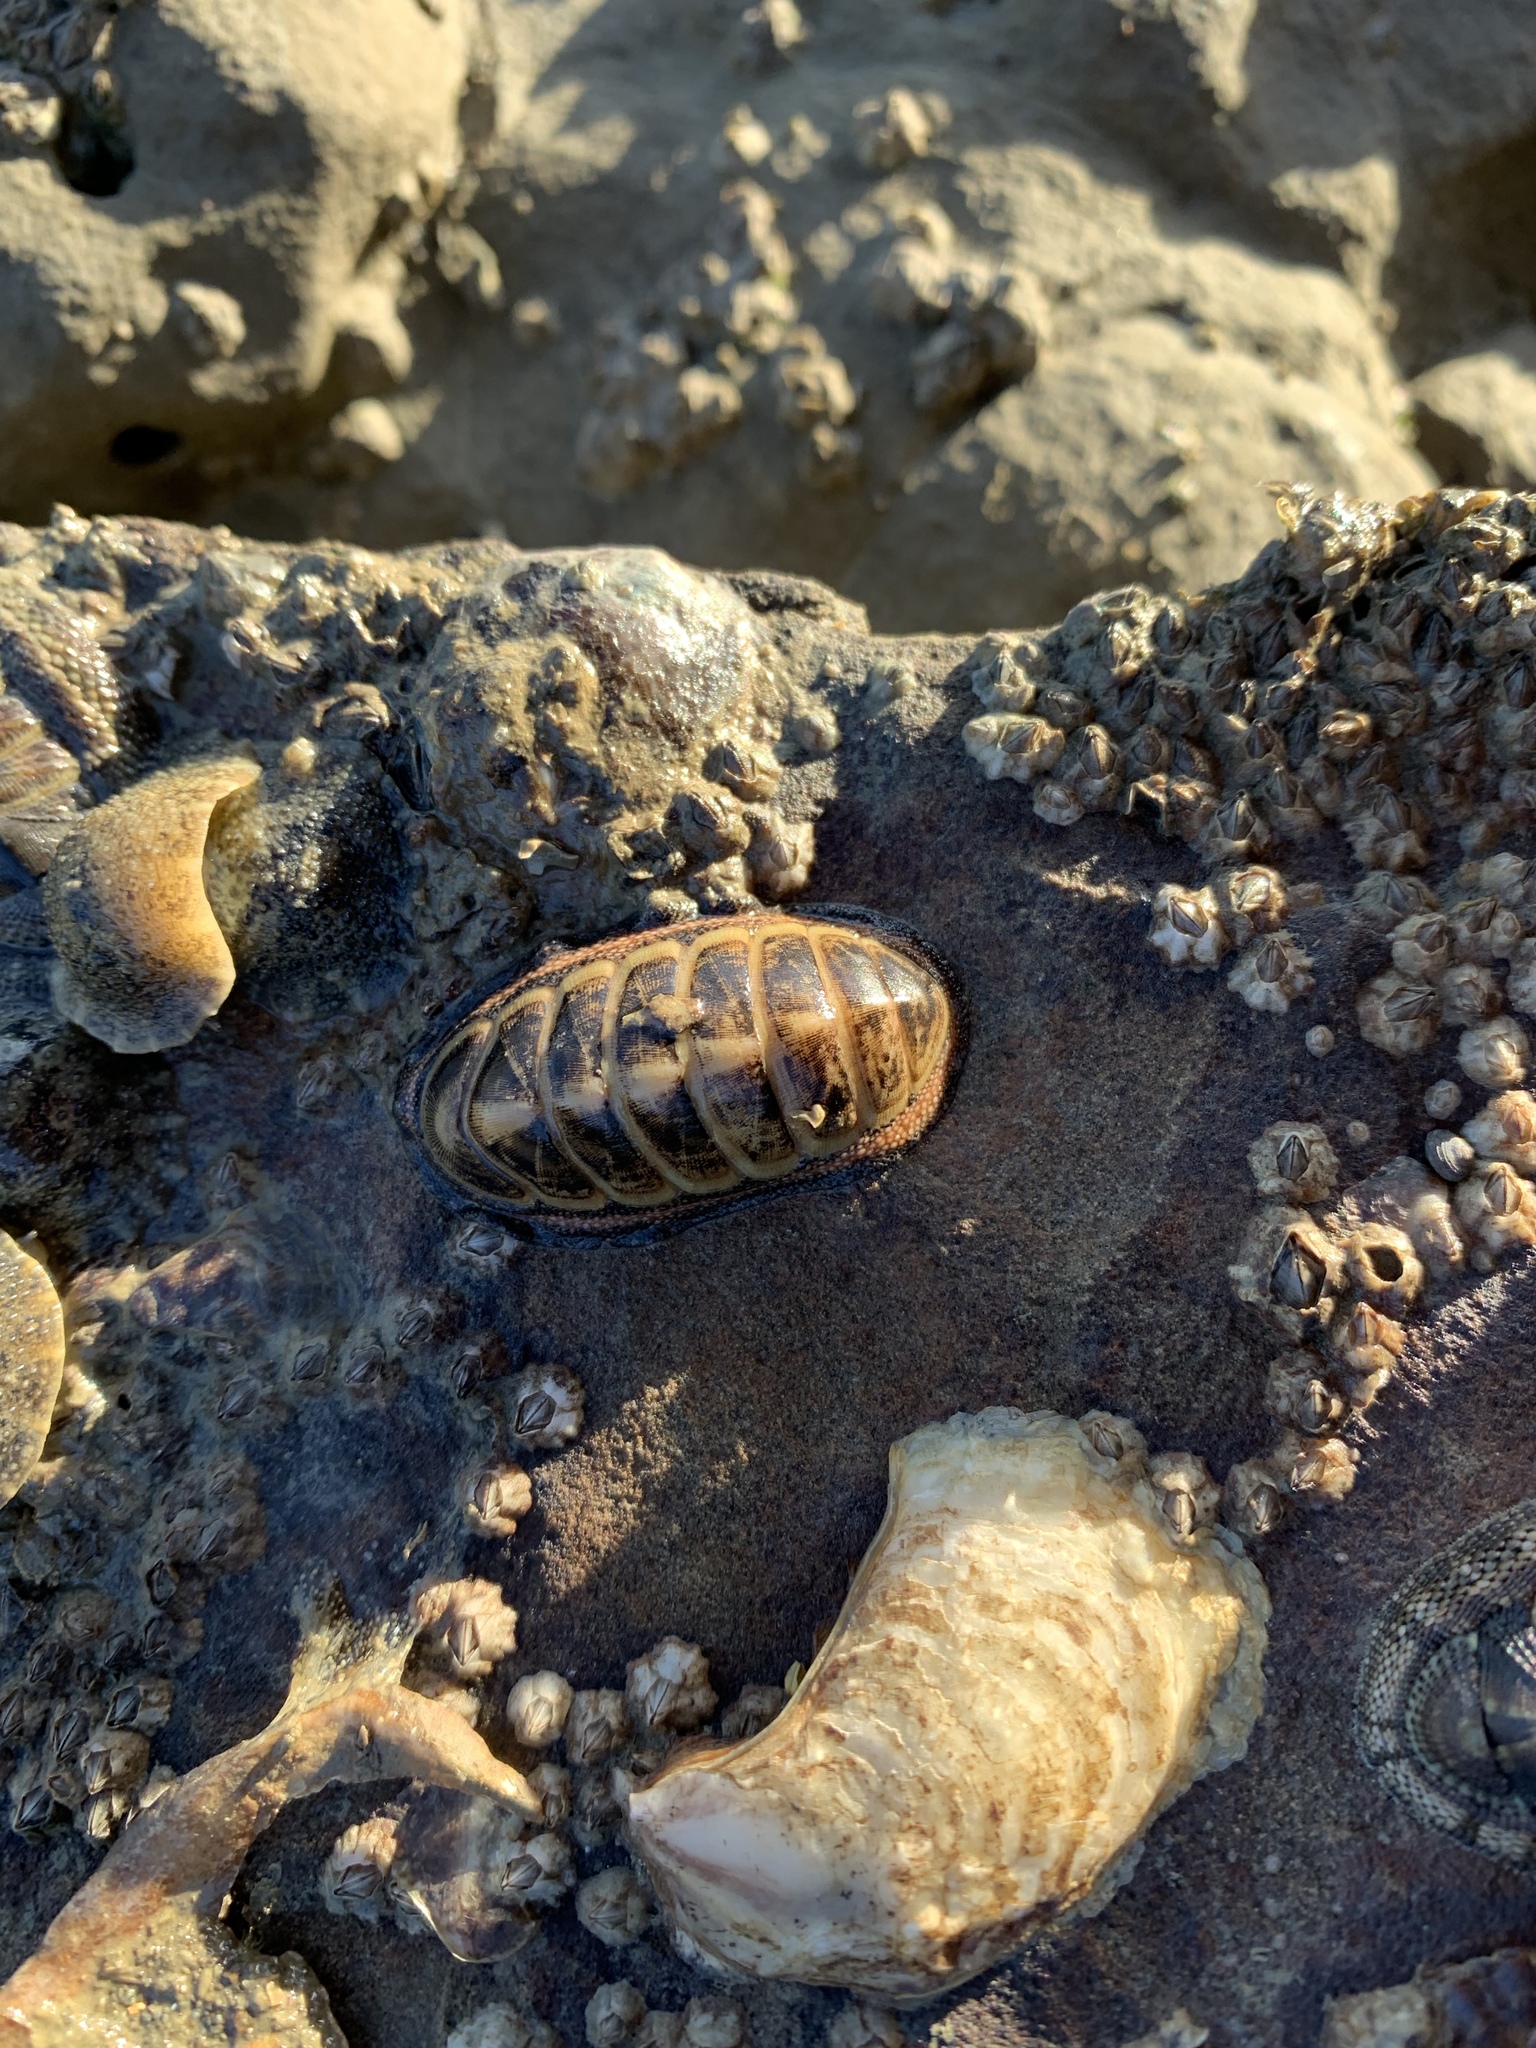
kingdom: Animalia
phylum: Mollusca
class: Polyplacophora
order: Chitonida
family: Ischnochitonidae
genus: Ischnochiton
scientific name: Ischnochiton maorianus
